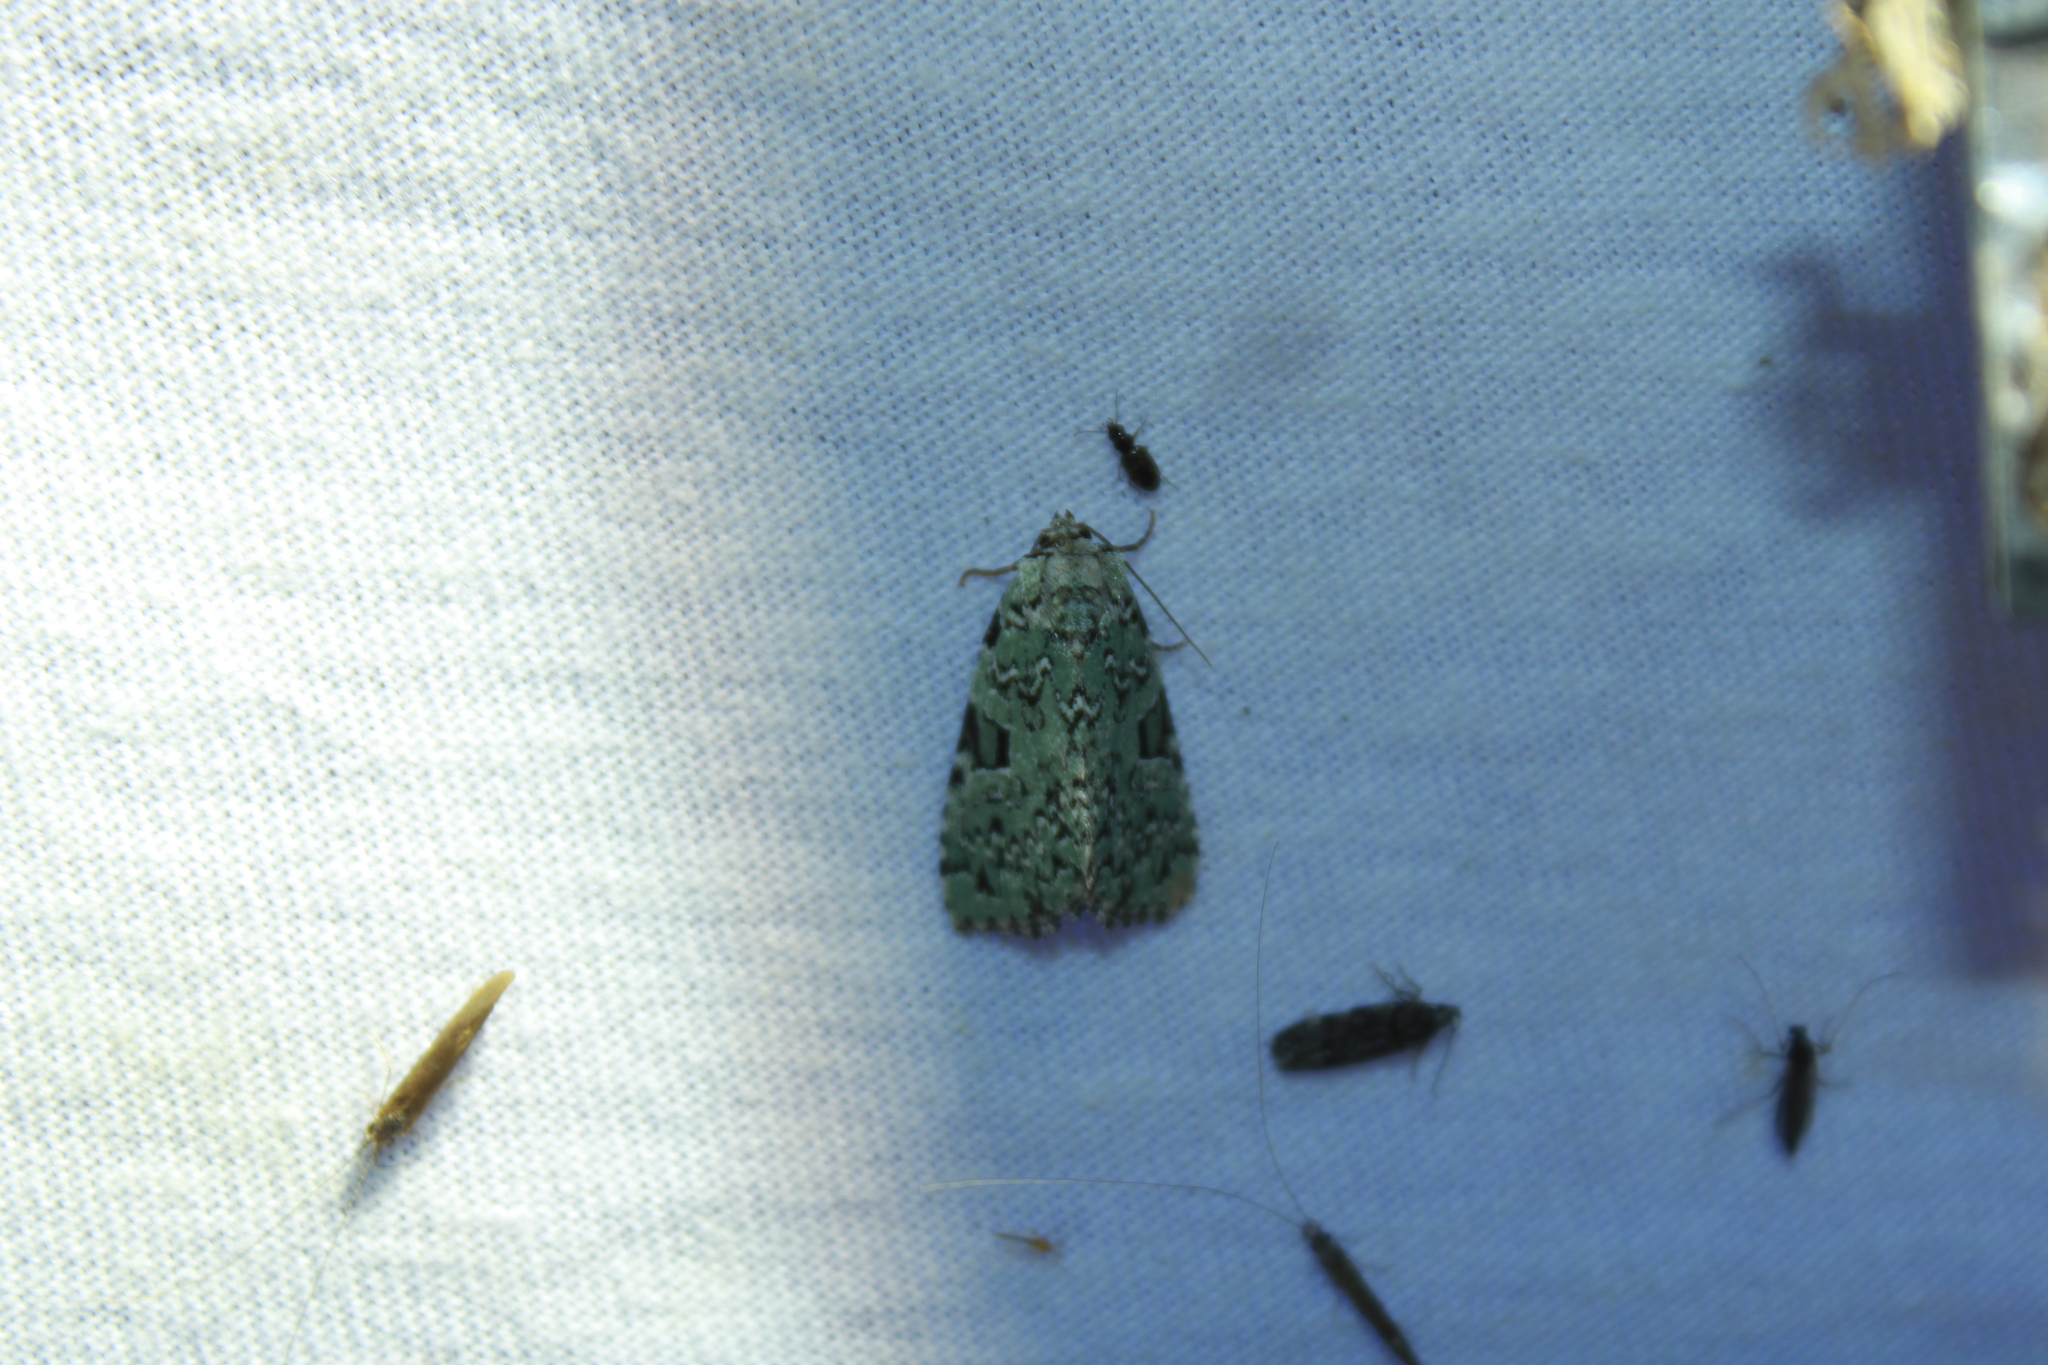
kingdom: Animalia
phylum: Arthropoda
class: Insecta
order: Lepidoptera
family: Noctuidae
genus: Leuconycta
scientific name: Leuconycta diphteroides
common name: Green leuconycta moth
